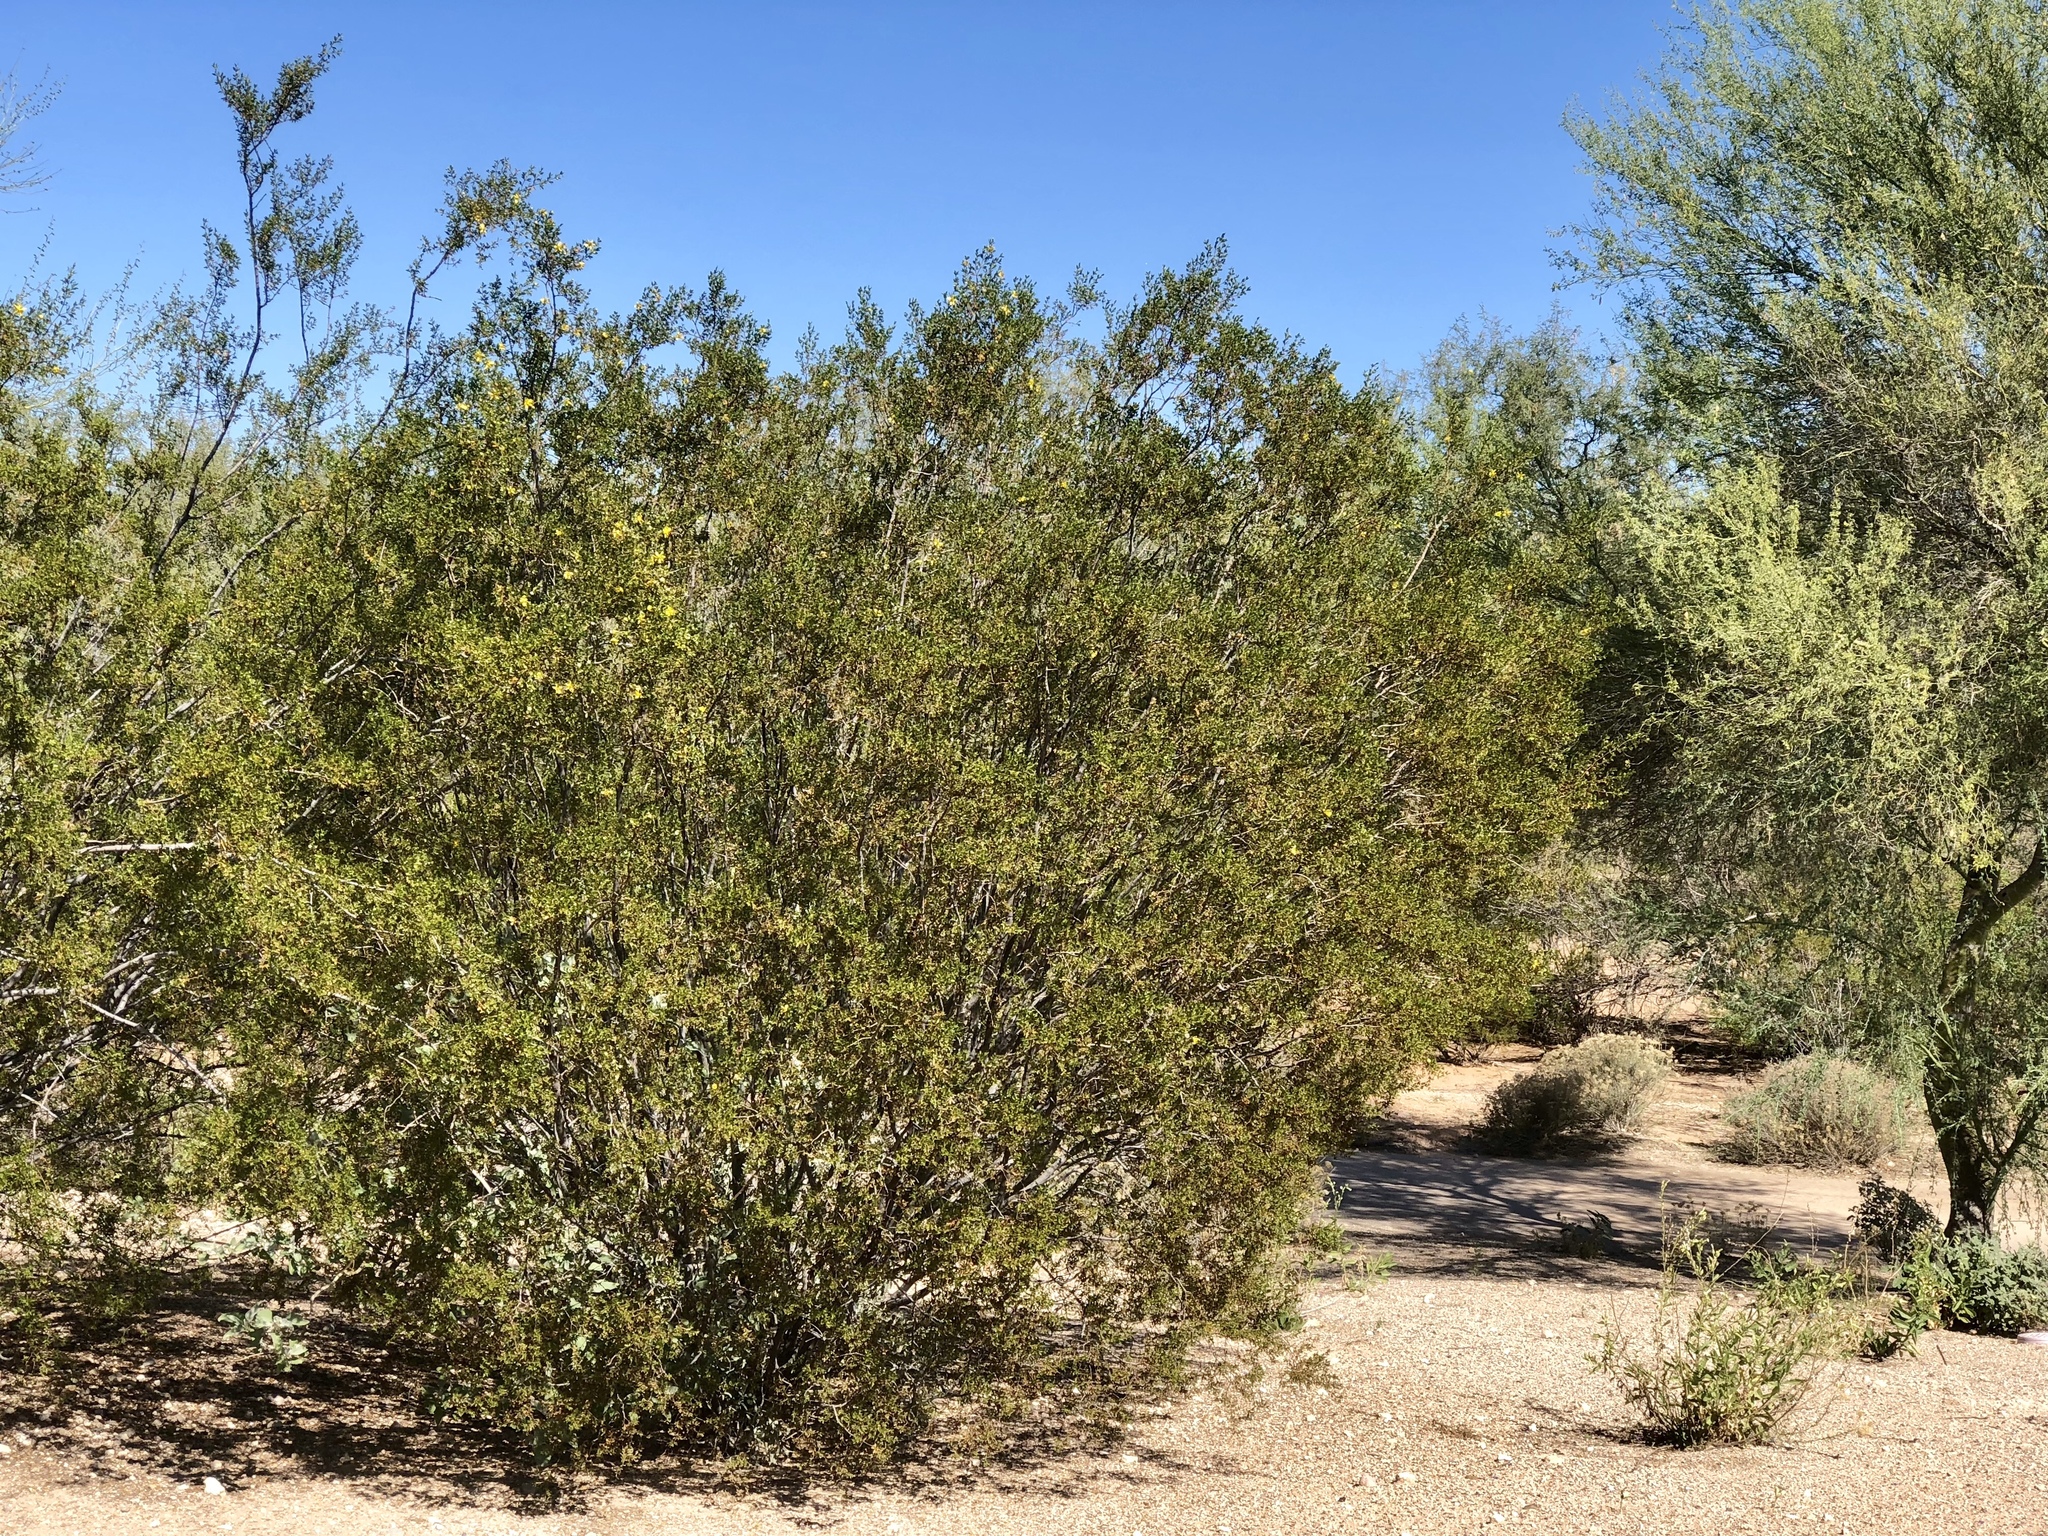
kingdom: Plantae
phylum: Tracheophyta
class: Magnoliopsida
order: Zygophyllales
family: Zygophyllaceae
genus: Larrea
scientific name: Larrea tridentata
